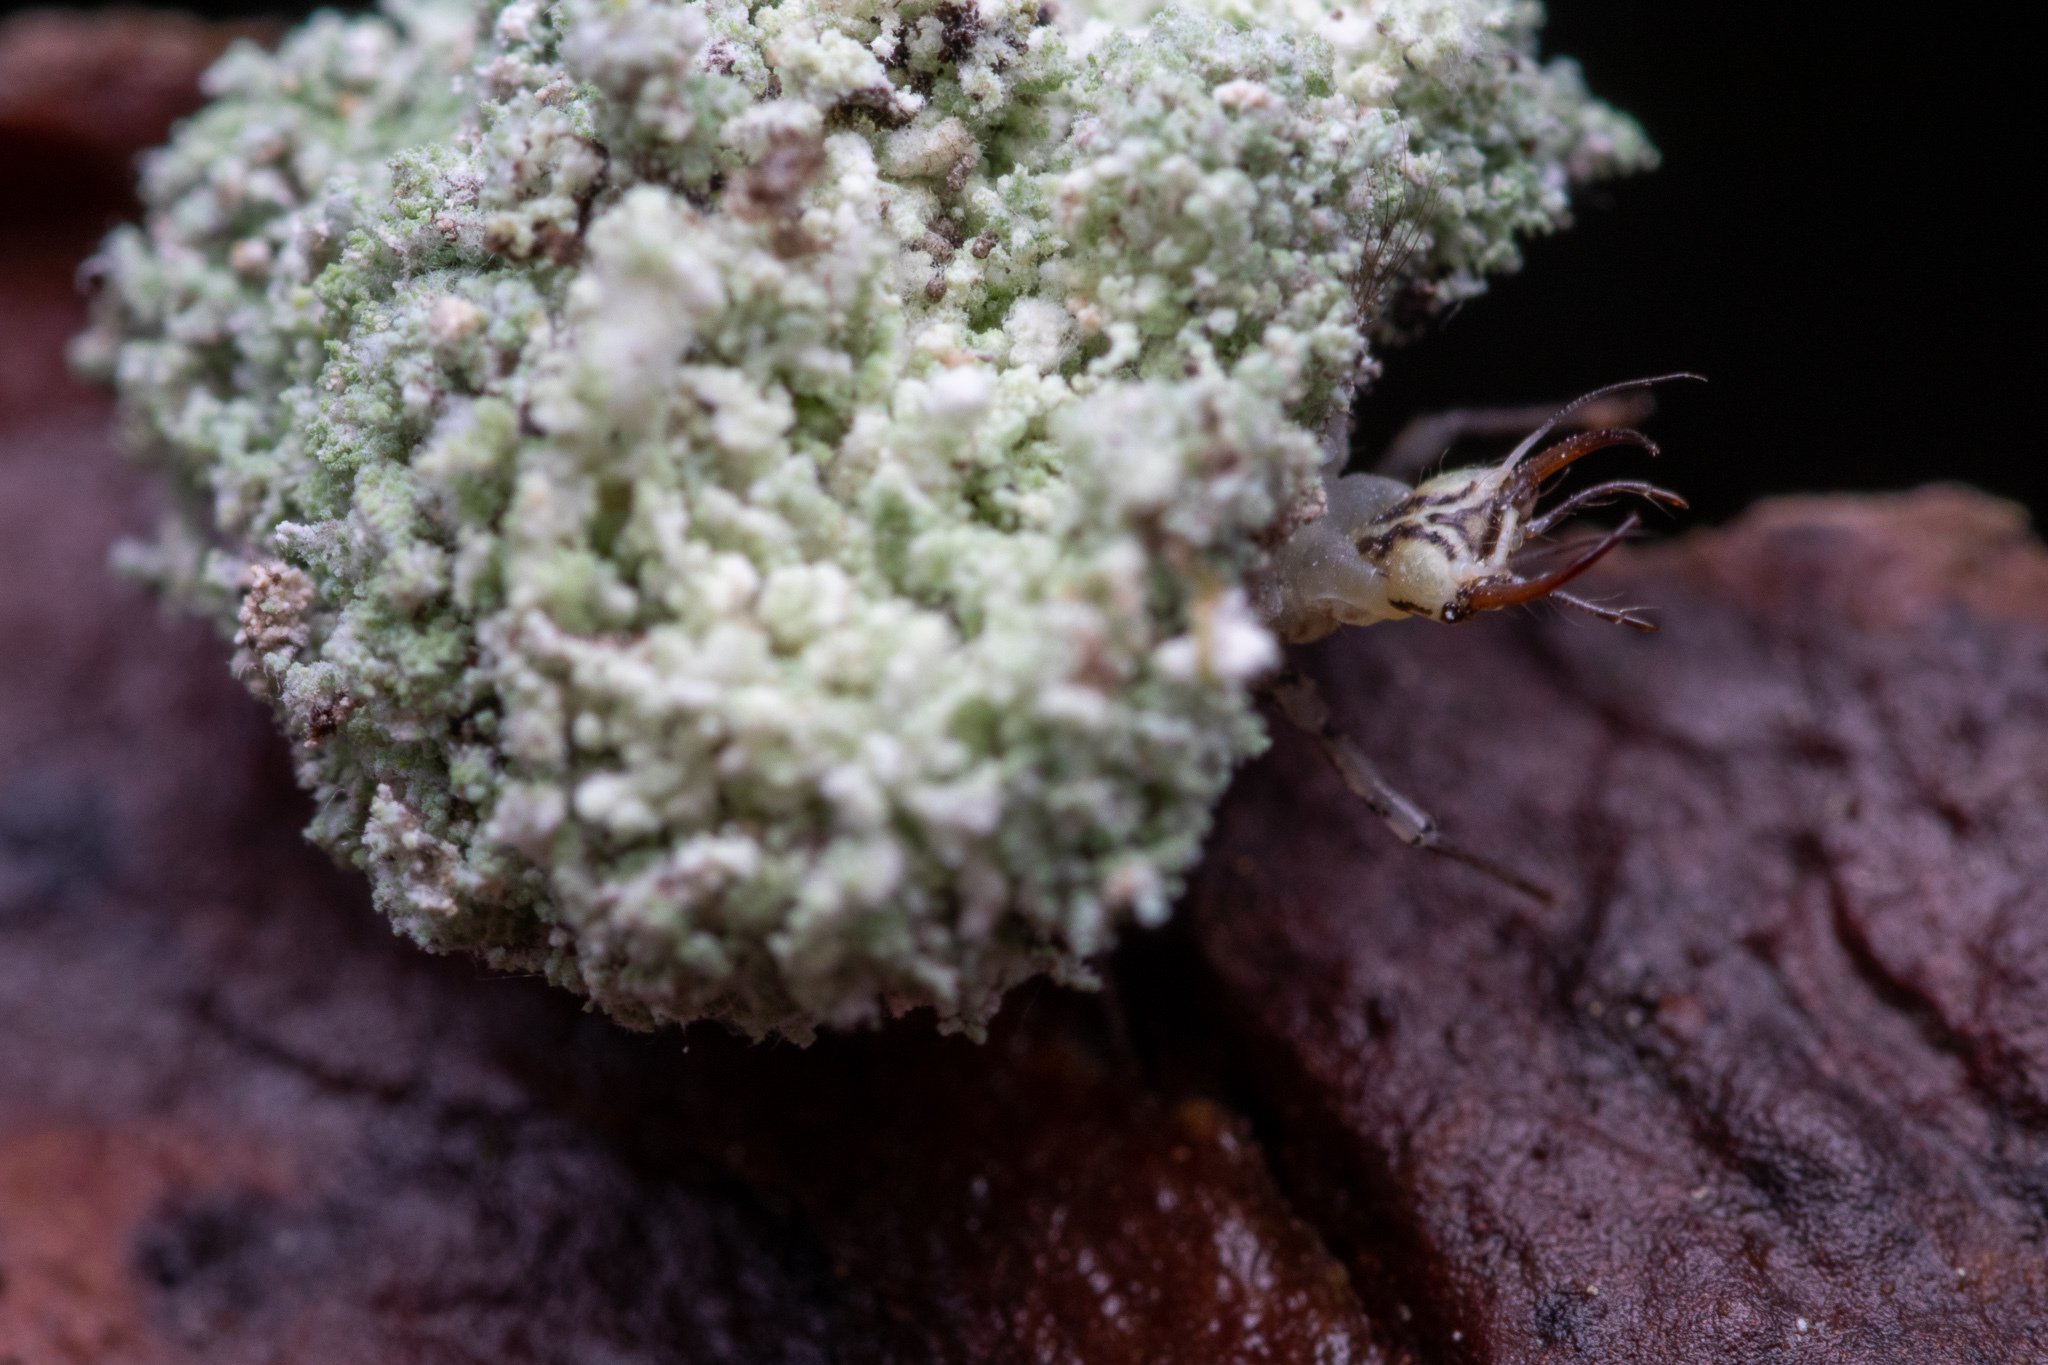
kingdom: Animalia
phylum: Arthropoda
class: Insecta
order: Neuroptera
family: Chrysopidae
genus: Leucochrysa
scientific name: Leucochrysa pavida
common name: Lichen-carrying green lacewing
